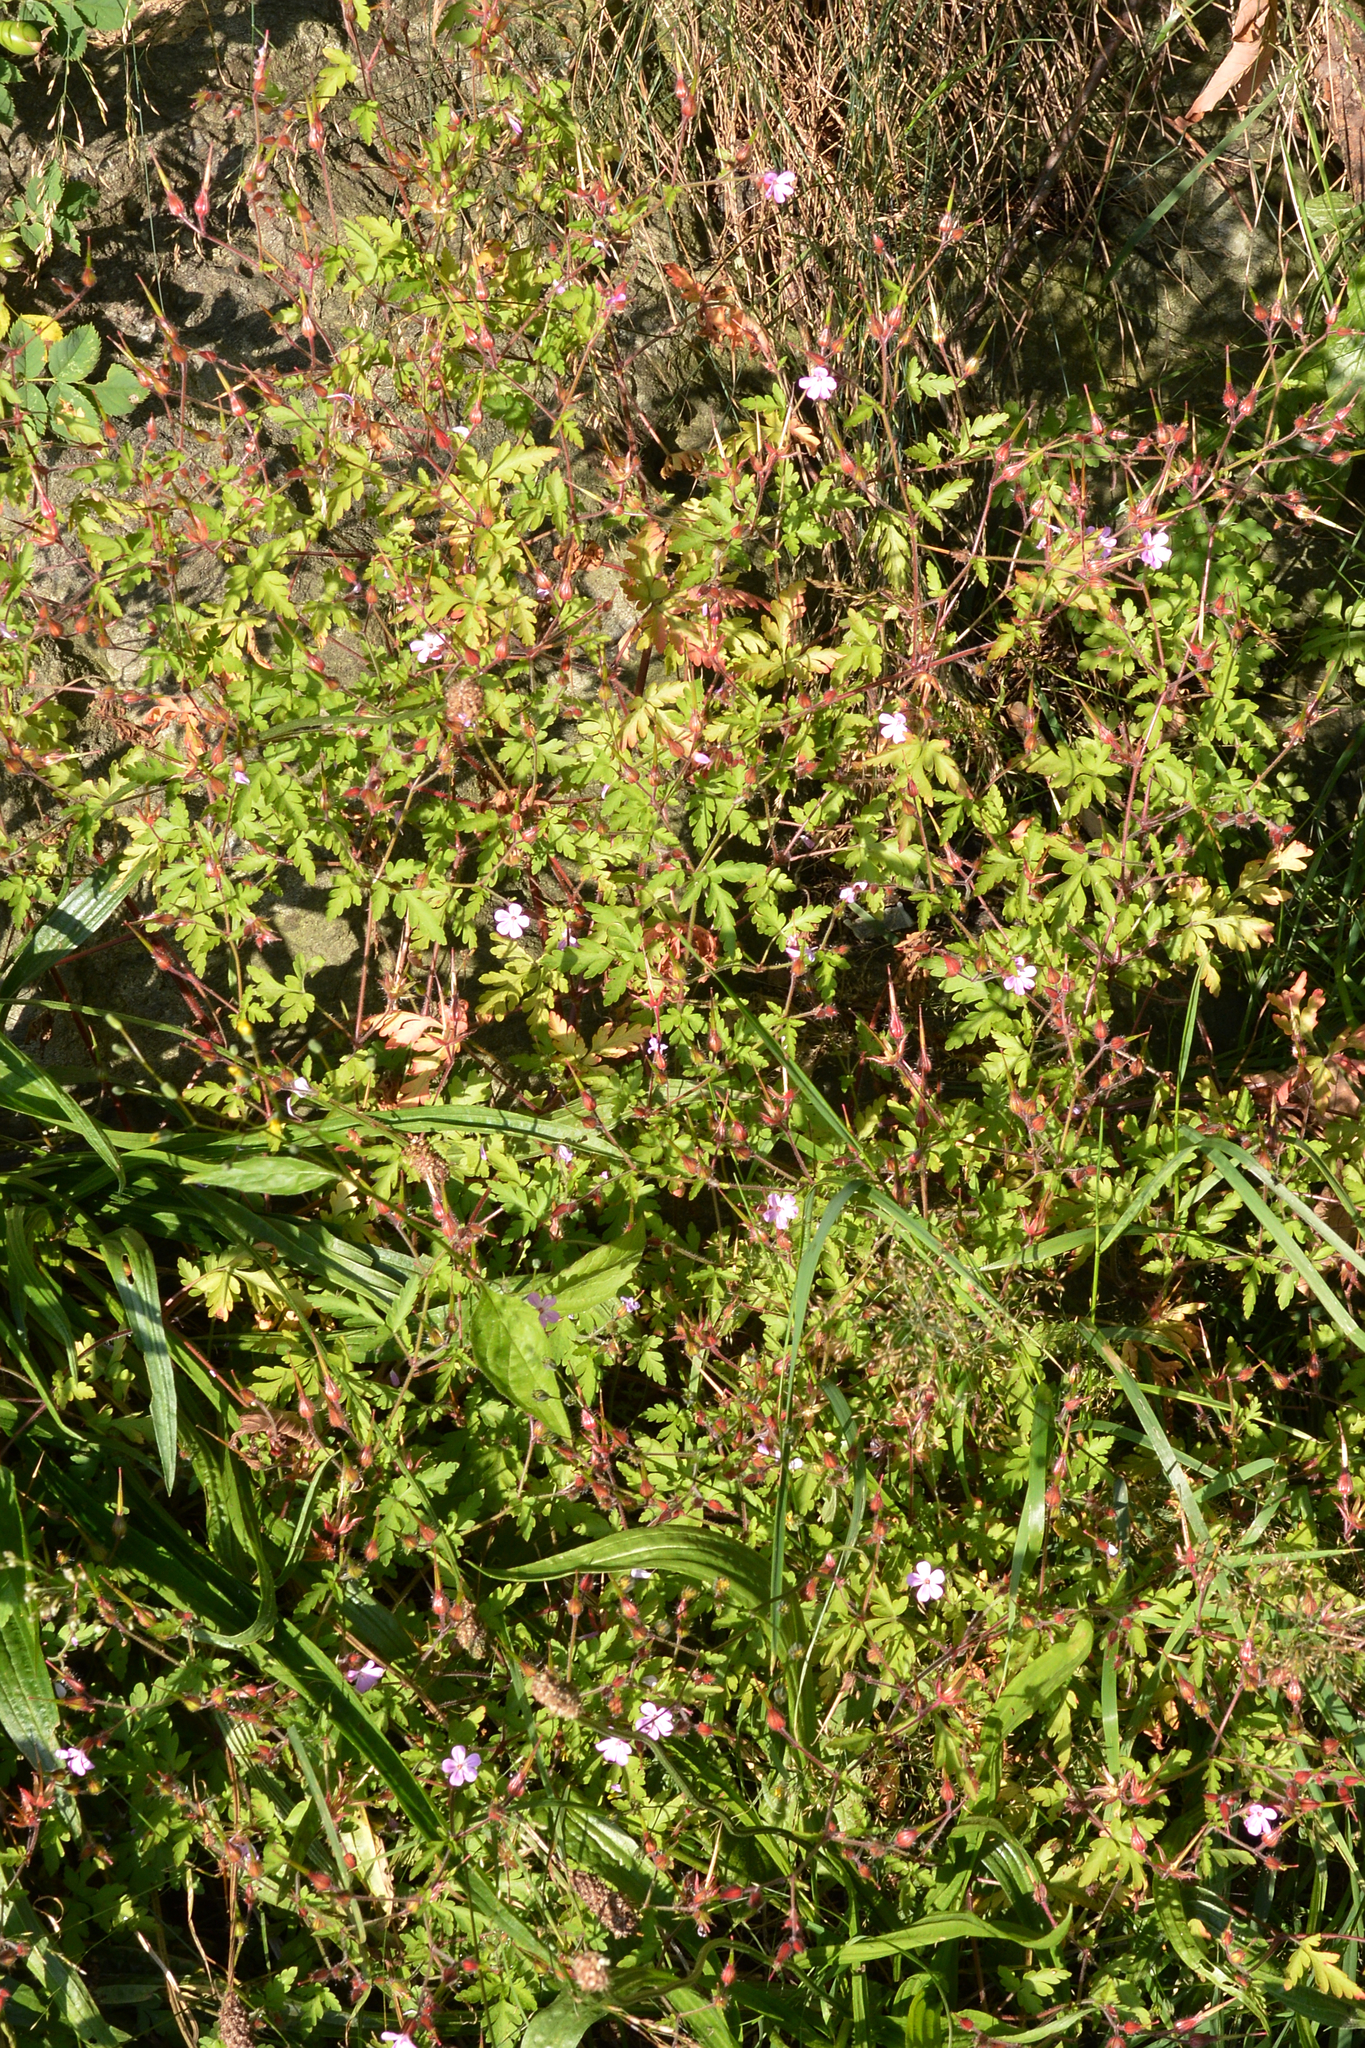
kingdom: Plantae
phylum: Tracheophyta
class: Magnoliopsida
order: Geraniales
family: Geraniaceae
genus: Geranium
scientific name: Geranium robertianum
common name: Herb-robert
